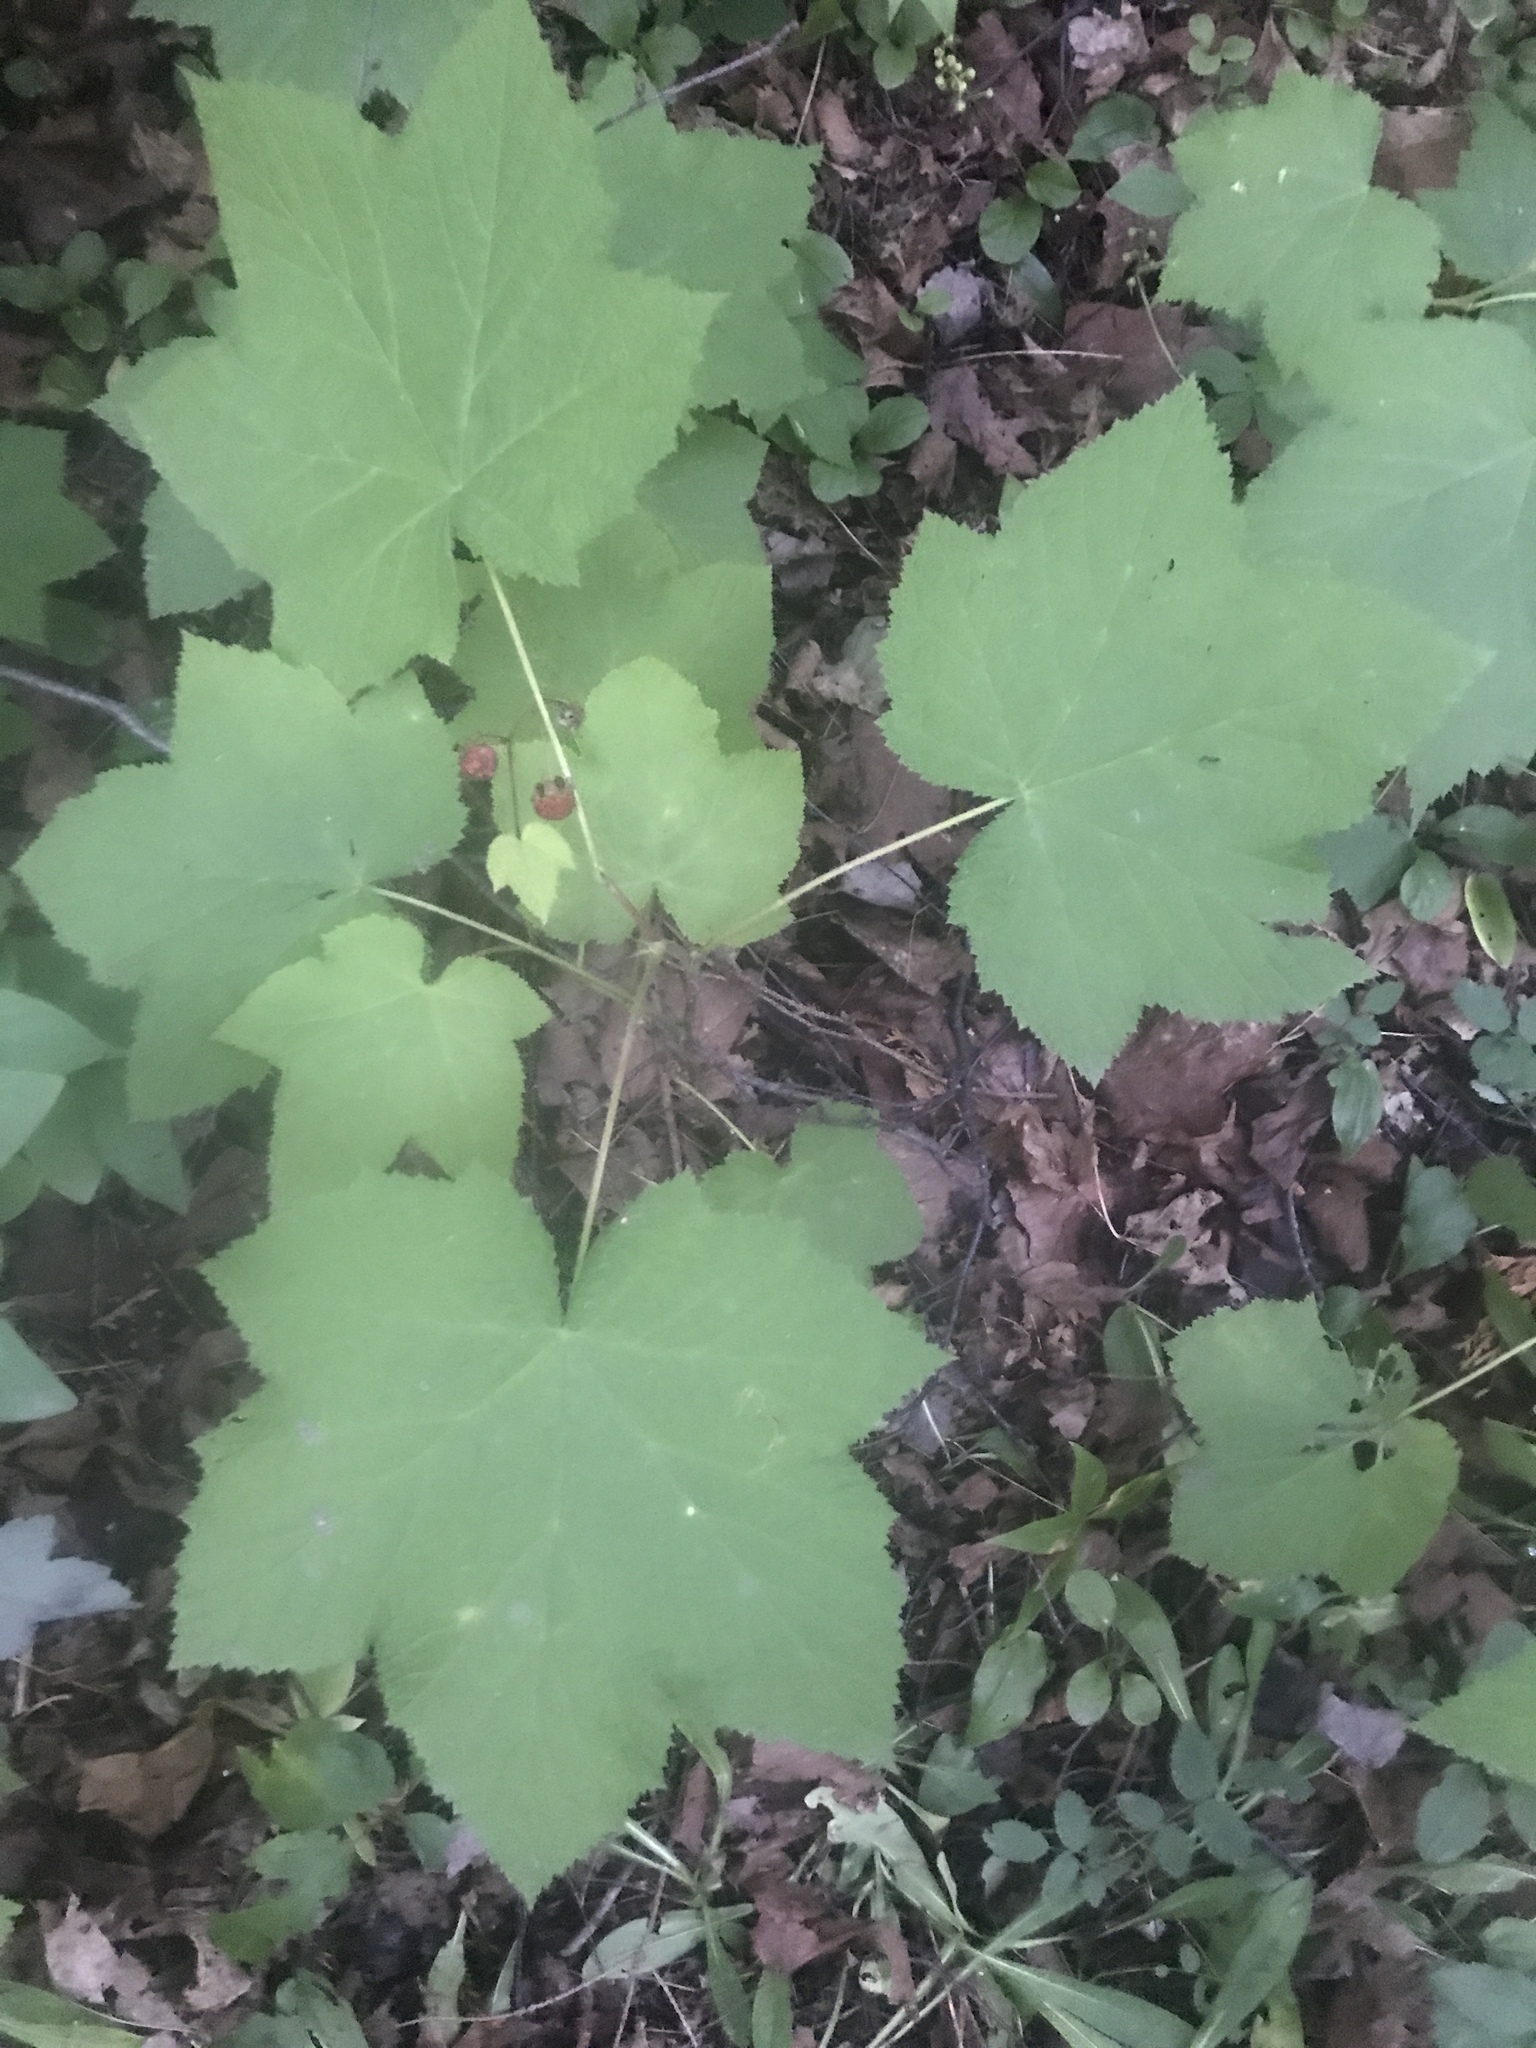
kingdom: Plantae
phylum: Tracheophyta
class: Magnoliopsida
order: Rosales
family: Rosaceae
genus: Rubus
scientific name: Rubus parviflorus
